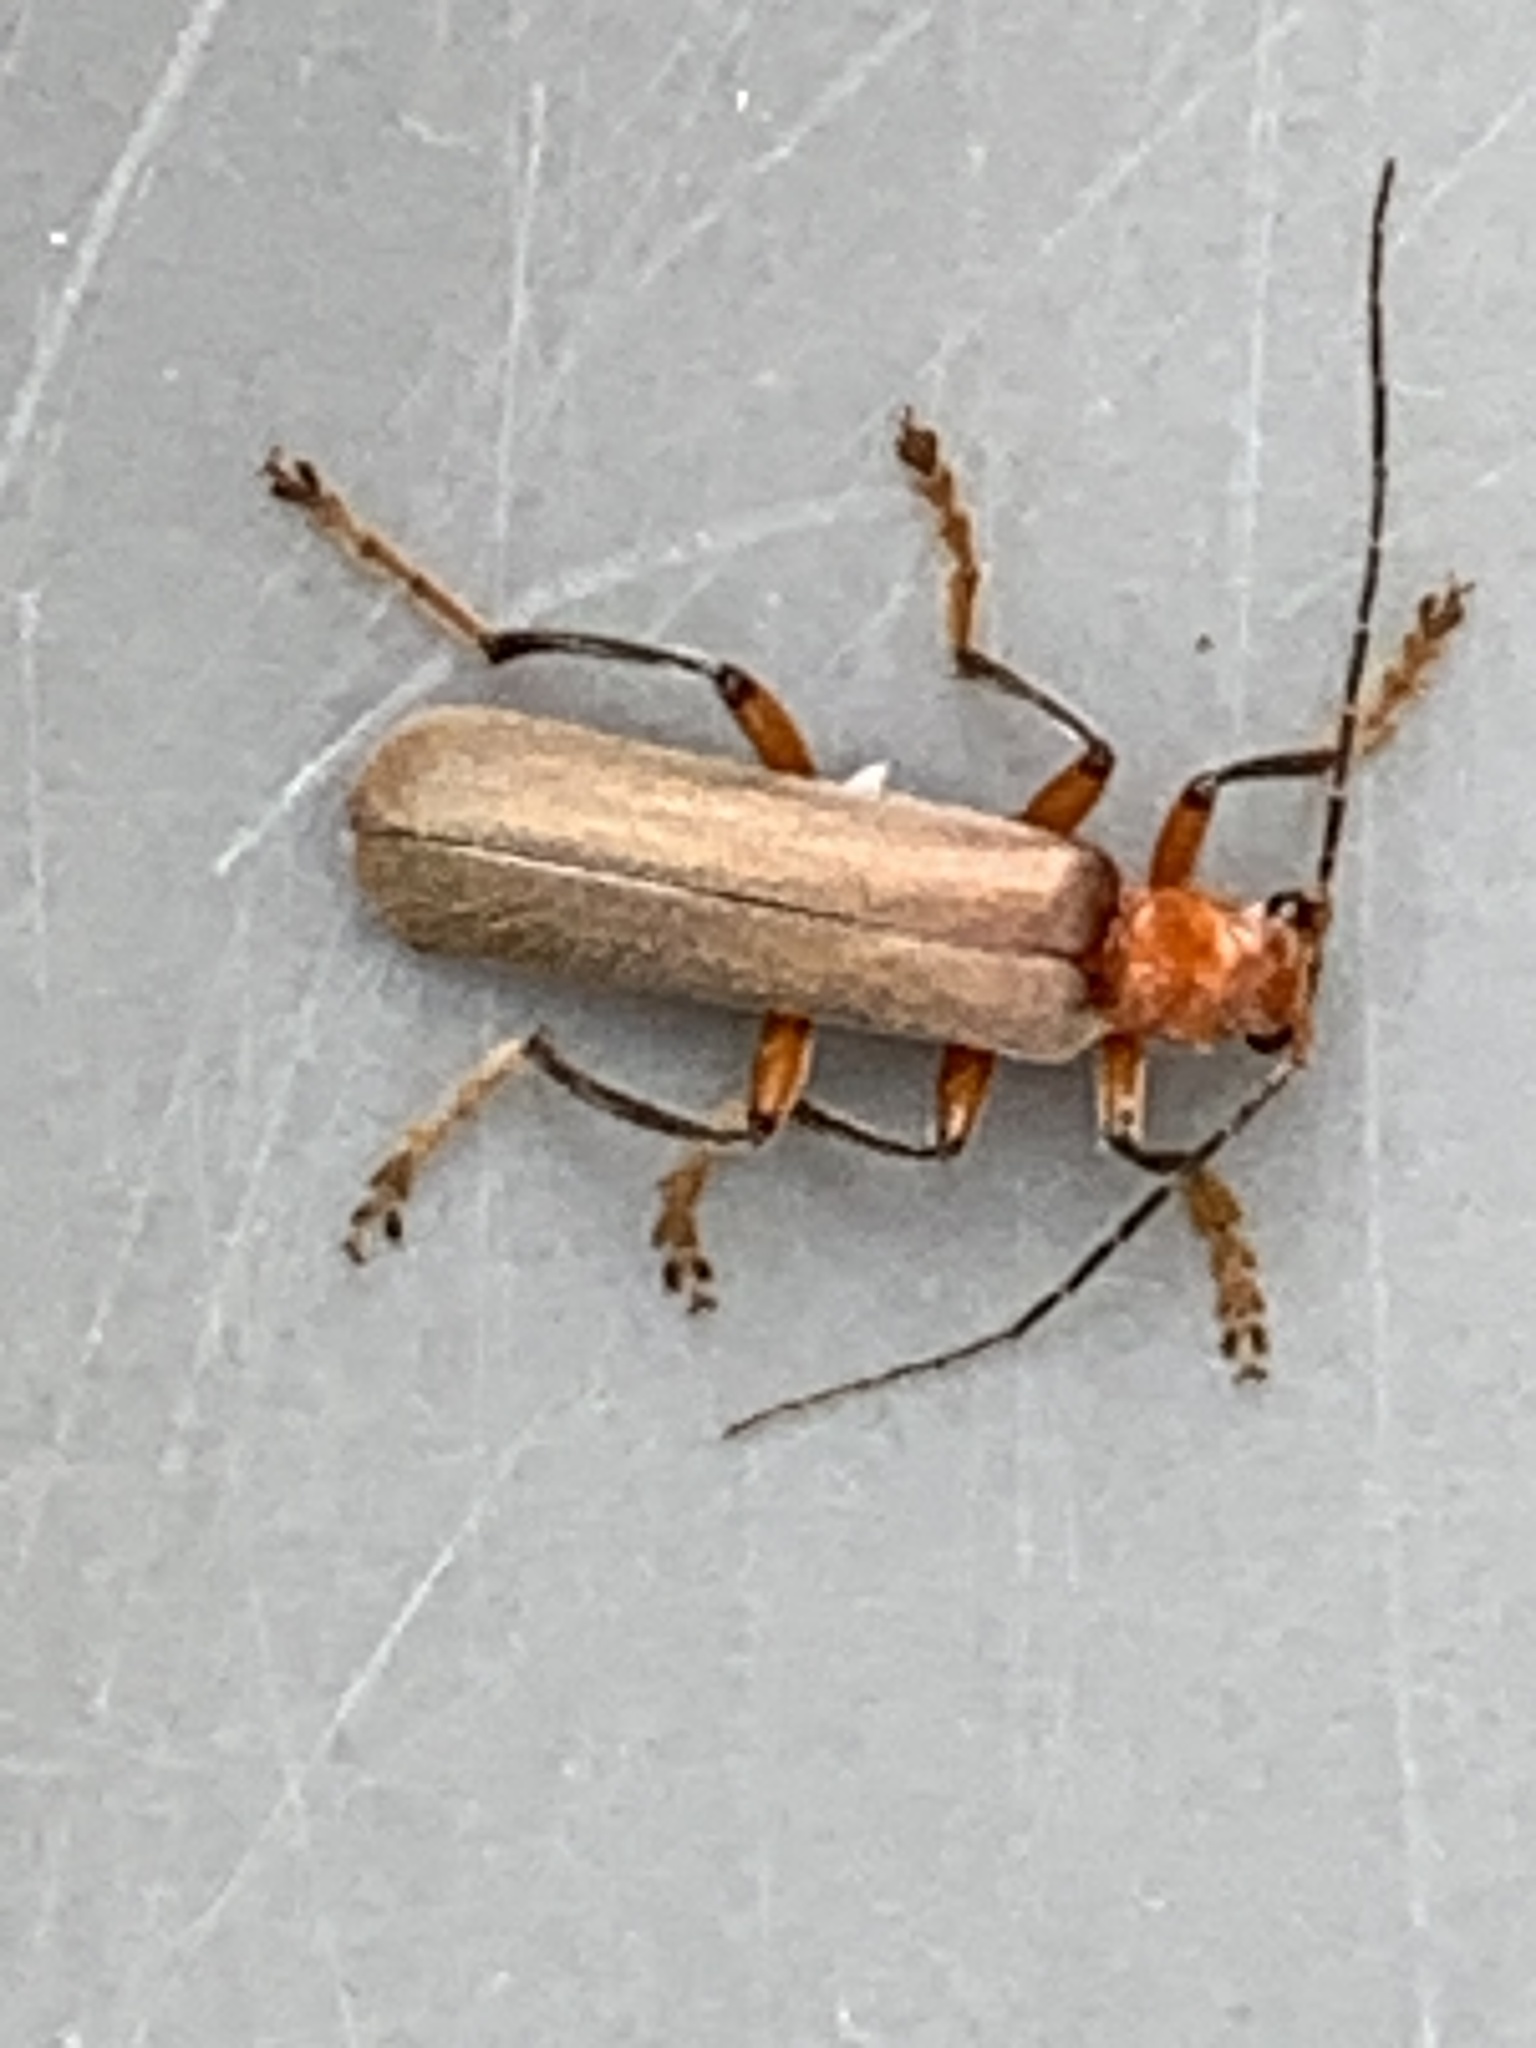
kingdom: Animalia
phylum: Arthropoda
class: Insecta
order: Coleoptera
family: Cantharidae
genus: Pacificanthia
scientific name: Pacificanthia consors
